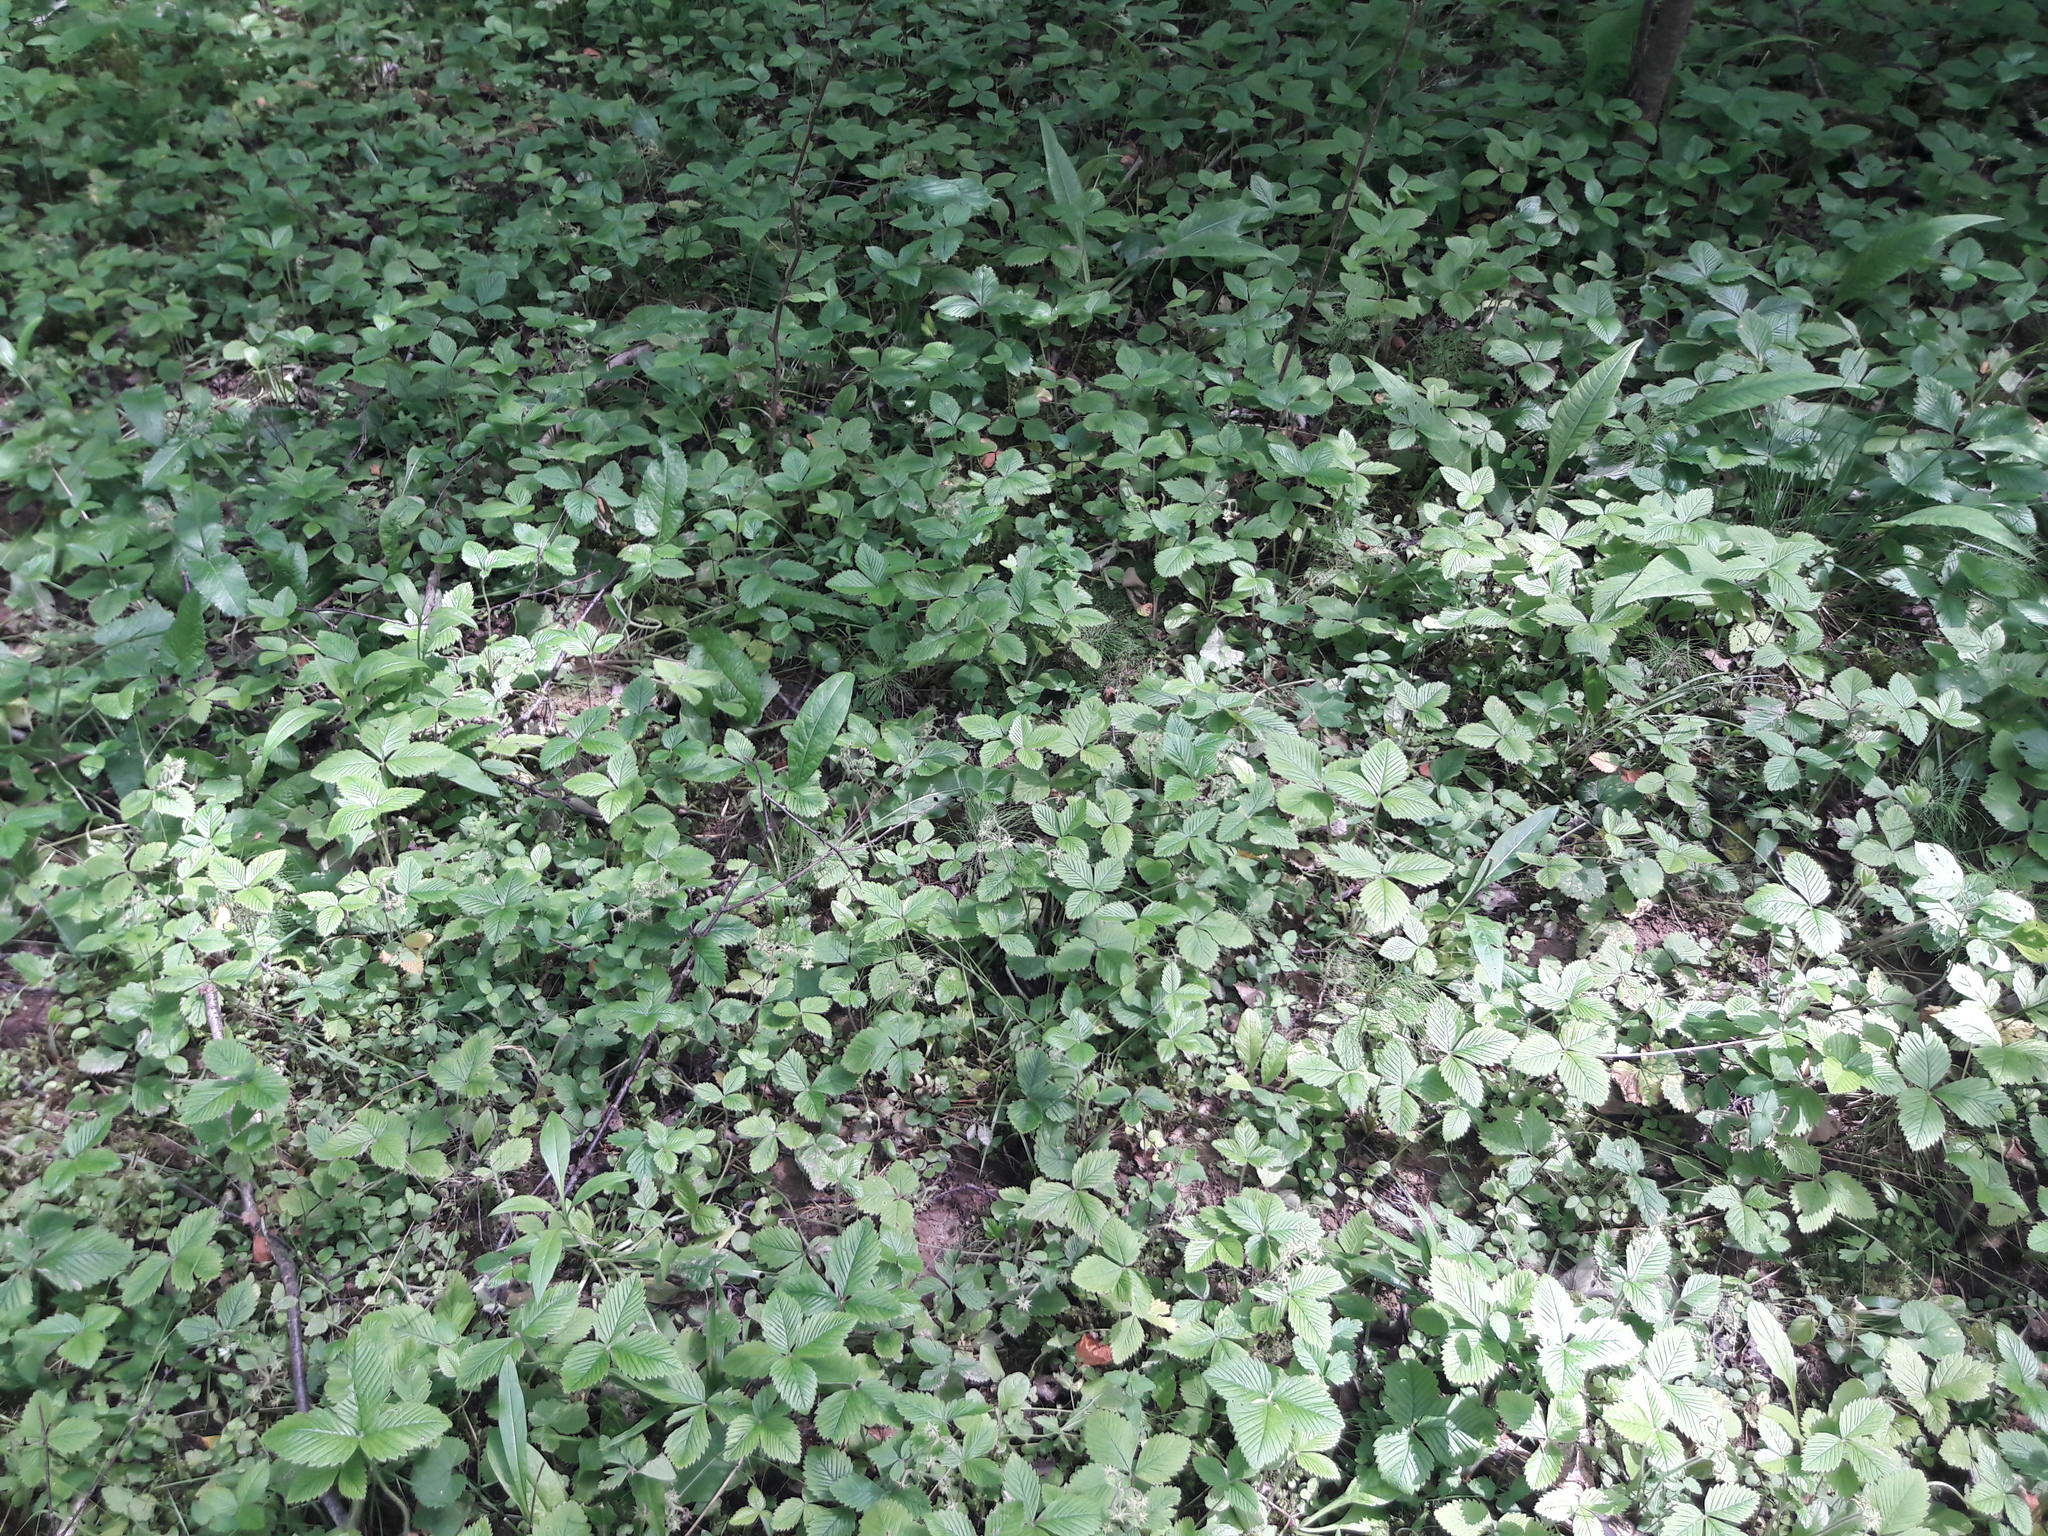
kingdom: Plantae
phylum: Tracheophyta
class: Magnoliopsida
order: Rosales
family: Rosaceae
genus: Fragaria
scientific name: Fragaria moschata
